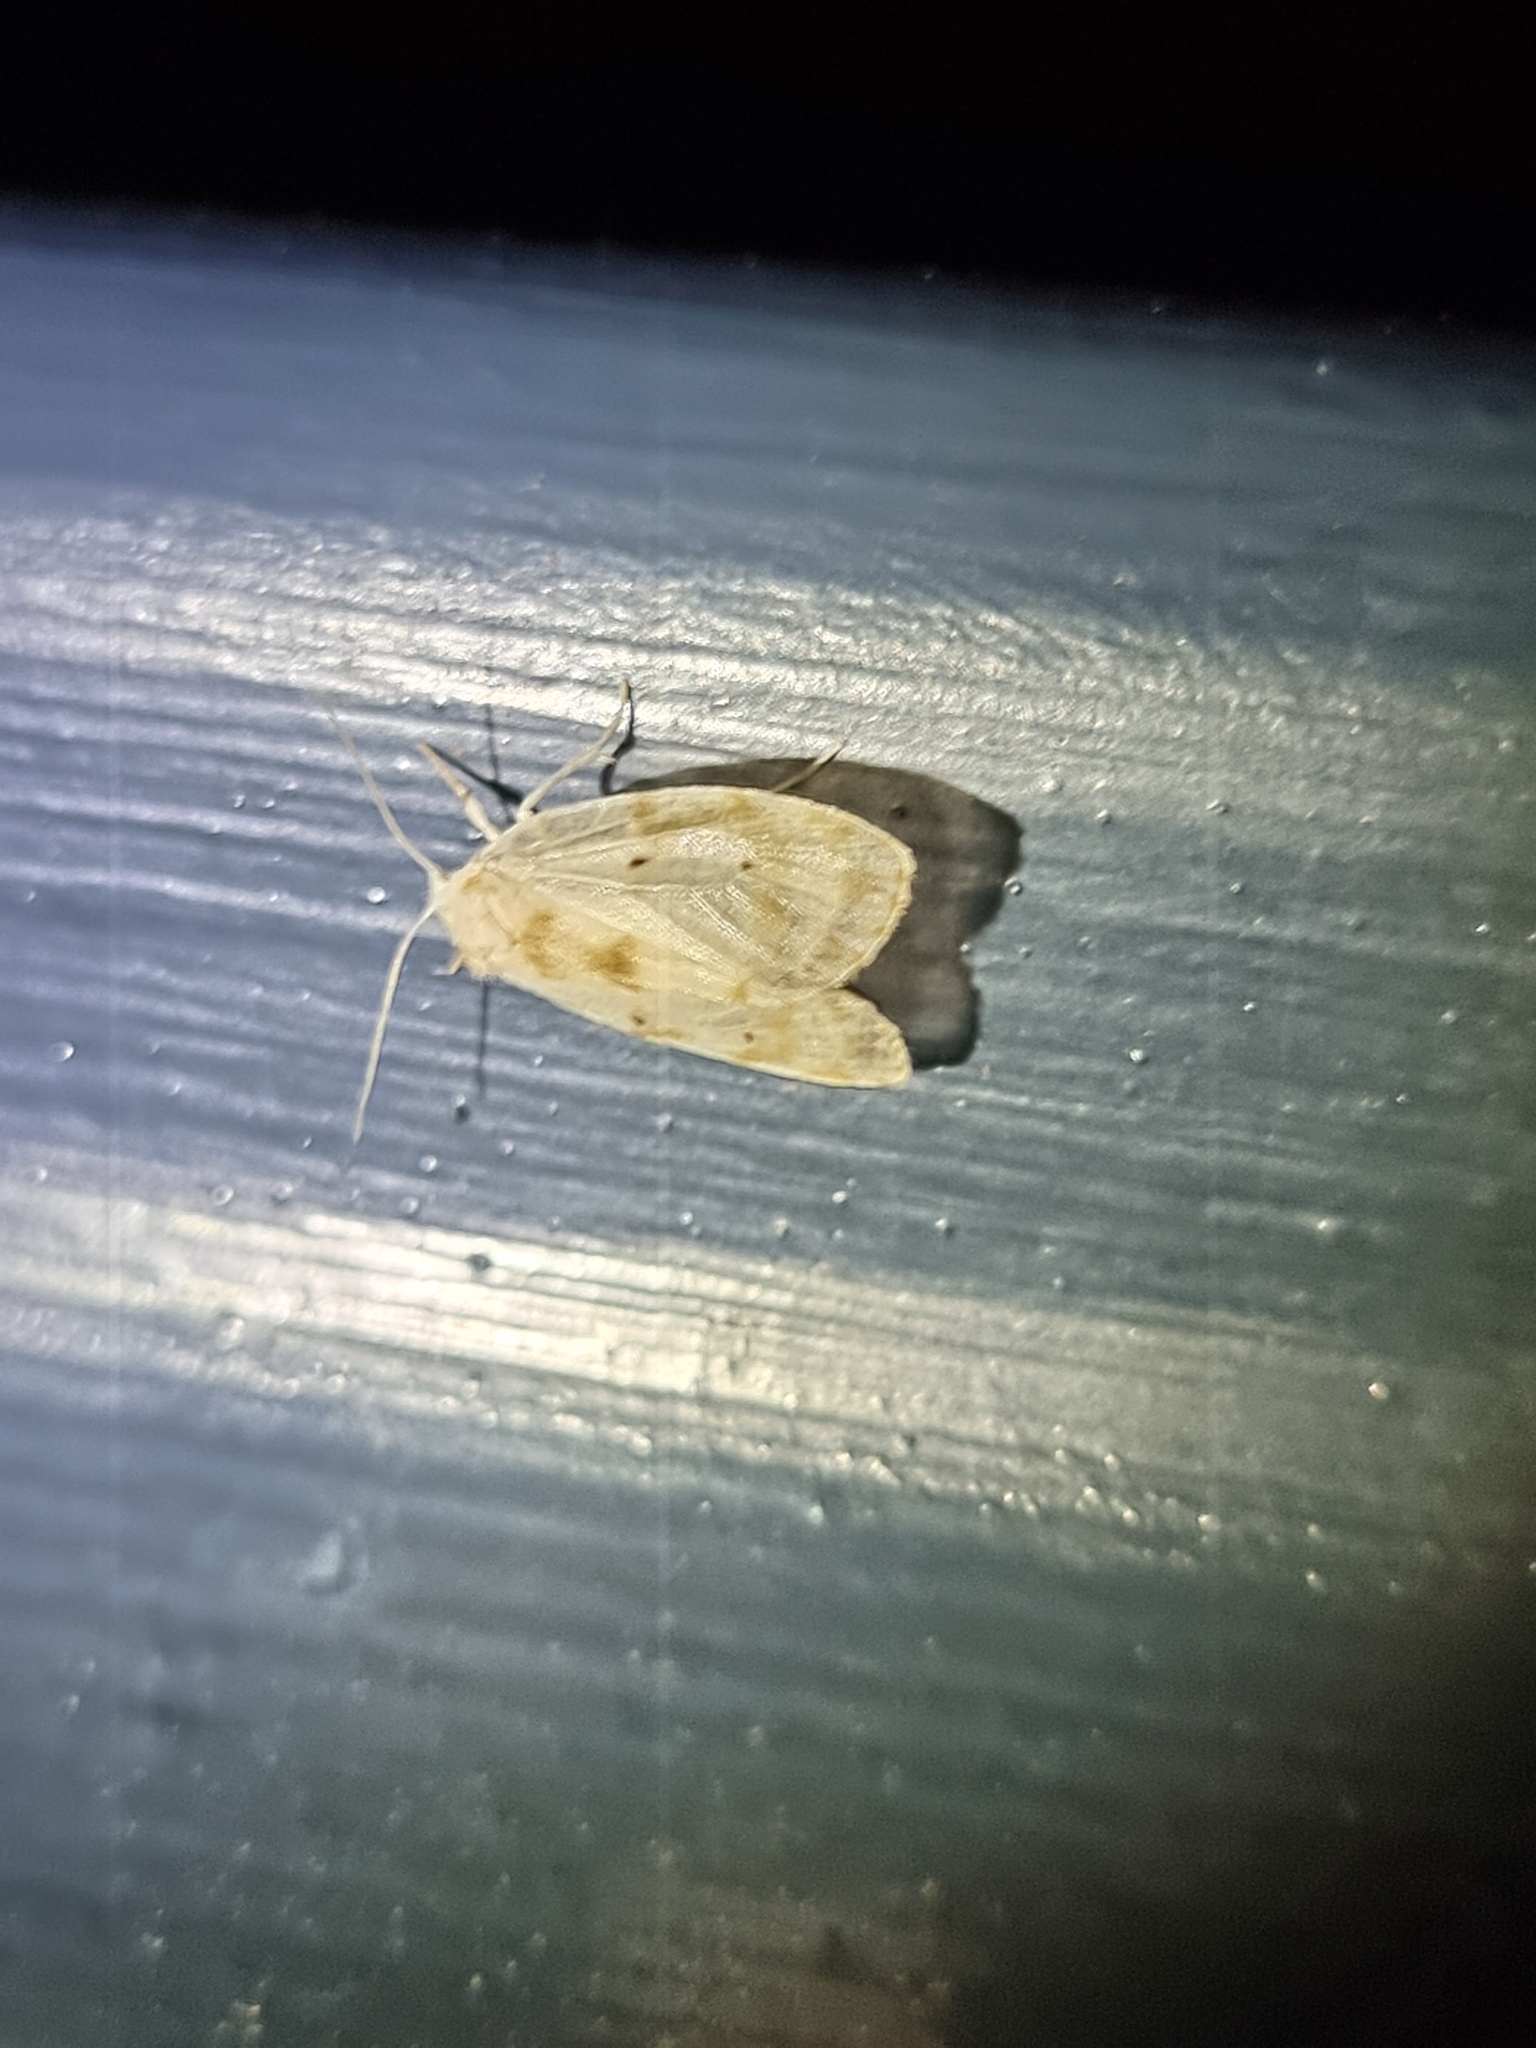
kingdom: Animalia
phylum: Arthropoda
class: Insecta
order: Lepidoptera
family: Erebidae
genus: Schistophleps
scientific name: Schistophleps albida
